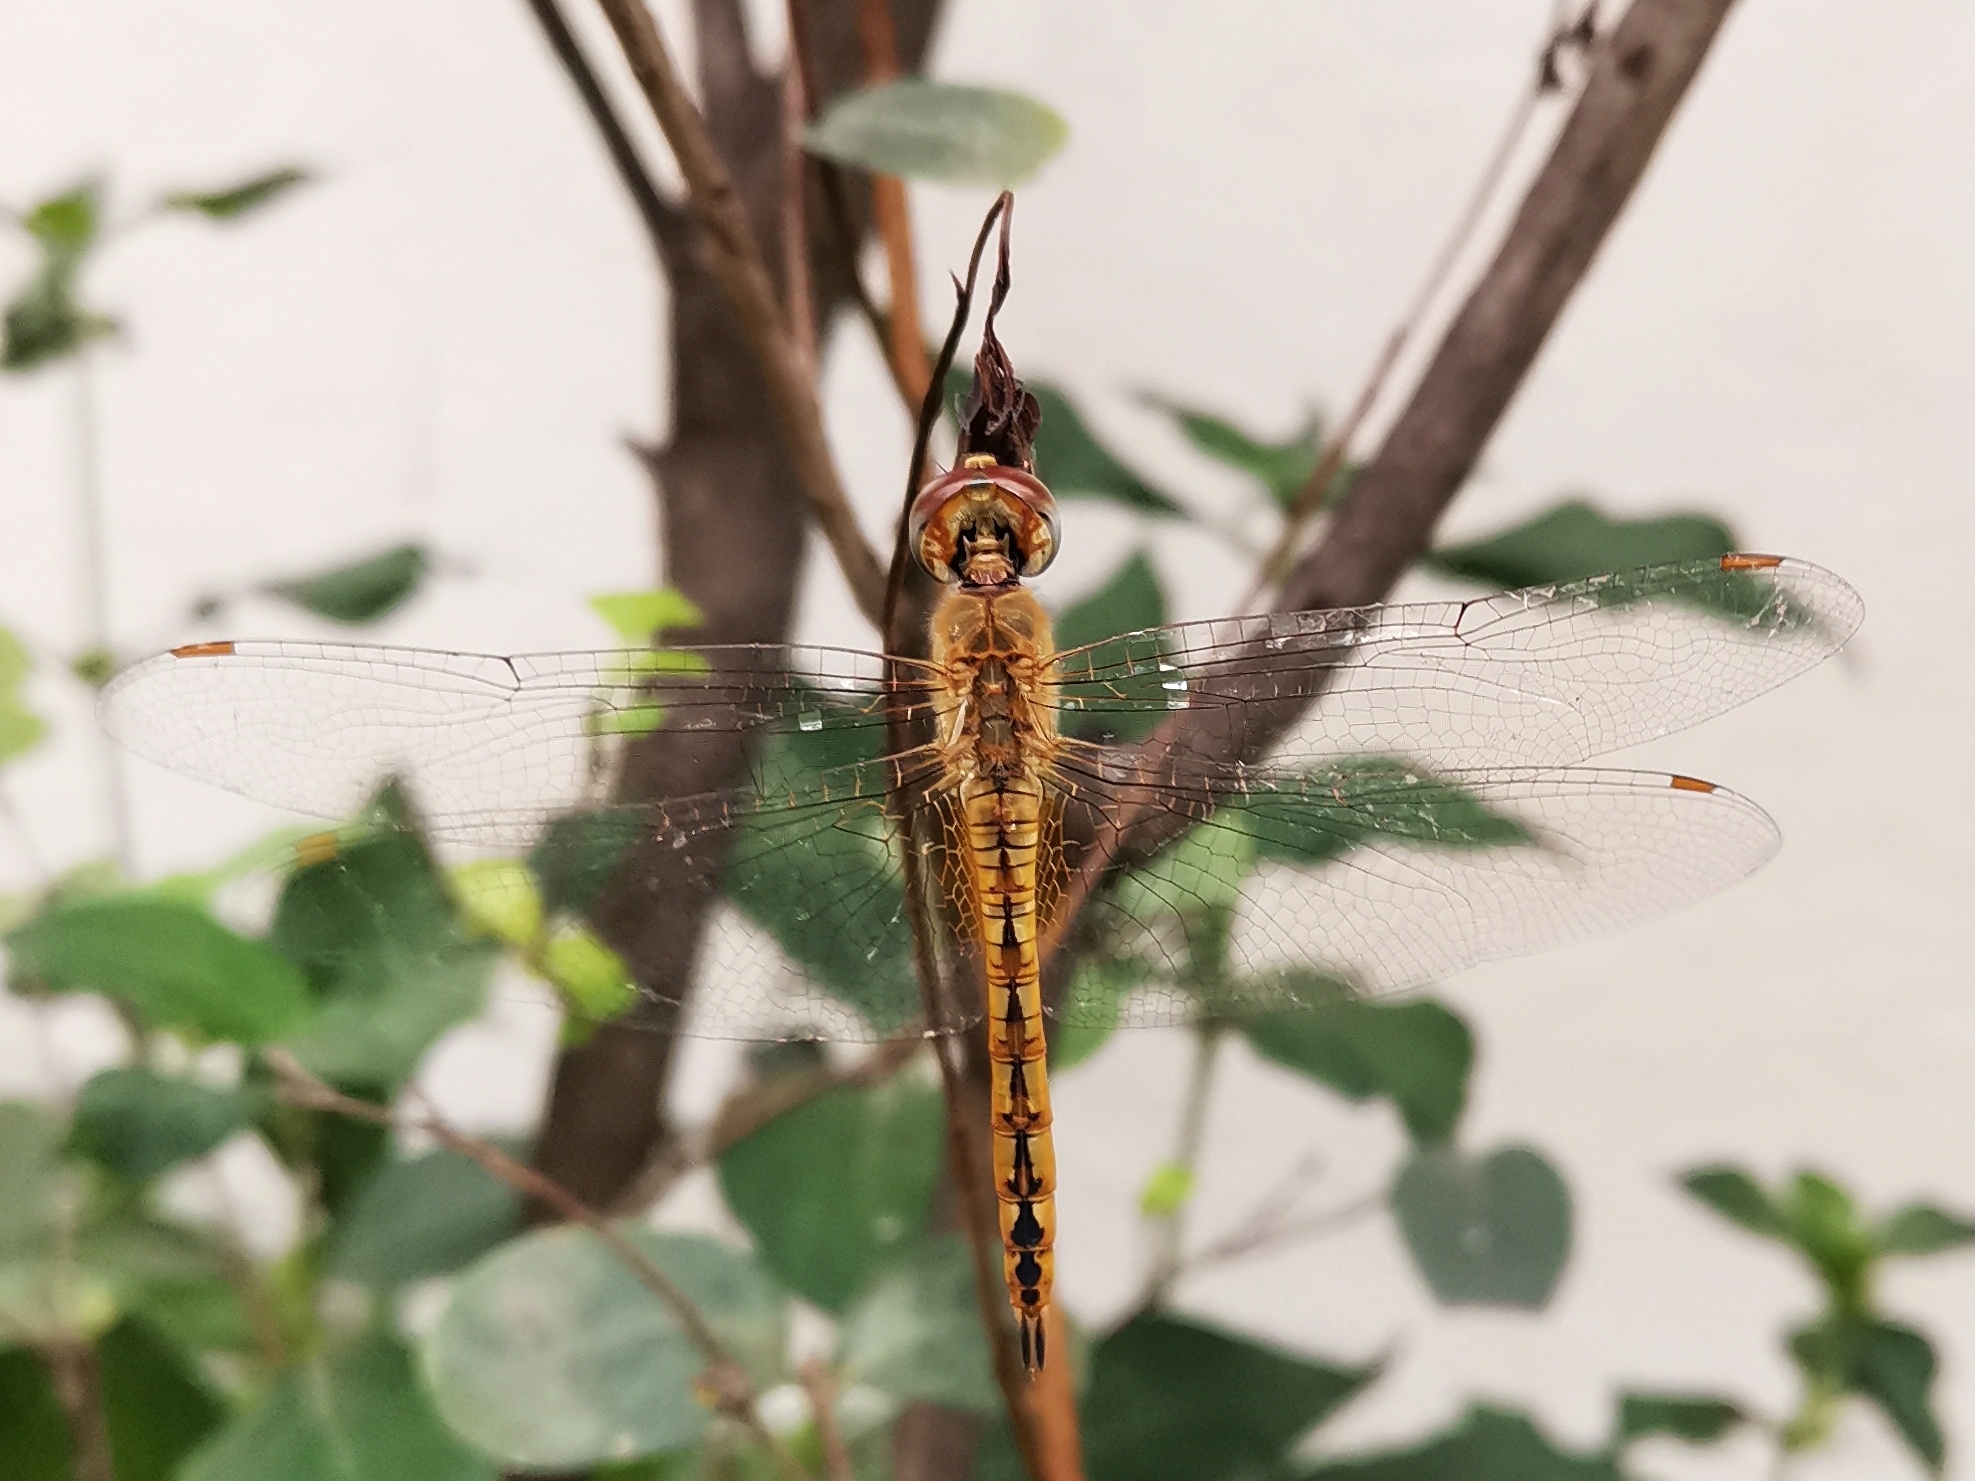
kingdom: Animalia
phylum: Arthropoda
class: Insecta
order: Odonata
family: Libellulidae
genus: Pantala
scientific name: Pantala flavescens
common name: Wandering glider
